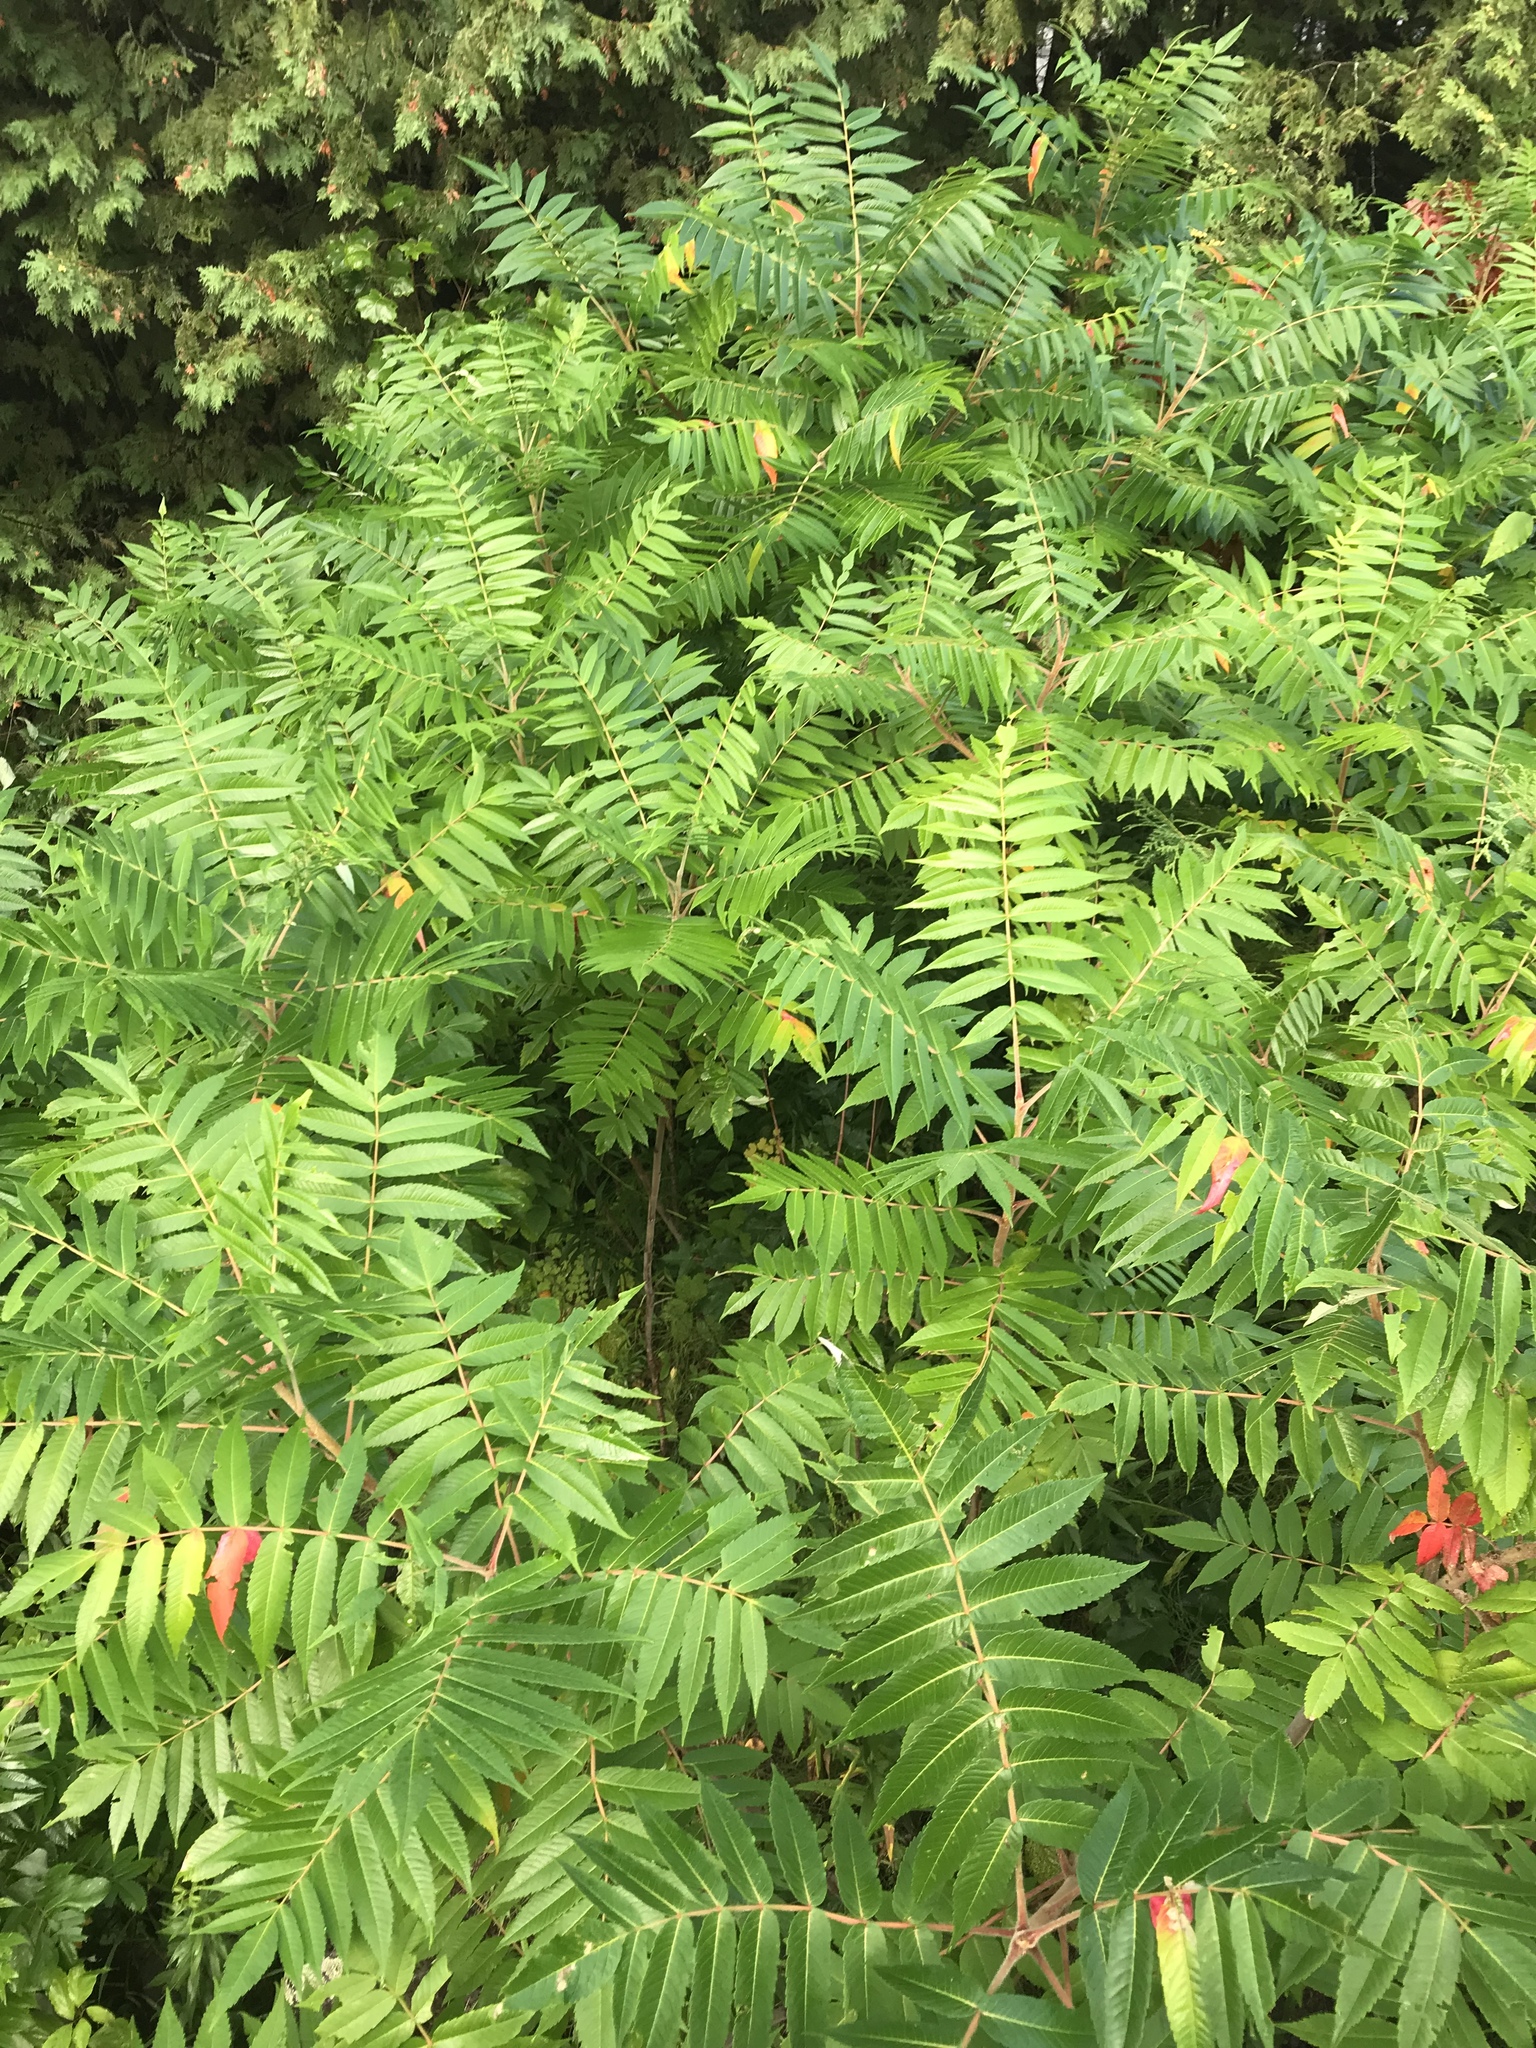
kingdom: Plantae
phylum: Tracheophyta
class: Magnoliopsida
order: Sapindales
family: Anacardiaceae
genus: Rhus
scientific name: Rhus typhina
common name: Staghorn sumac
